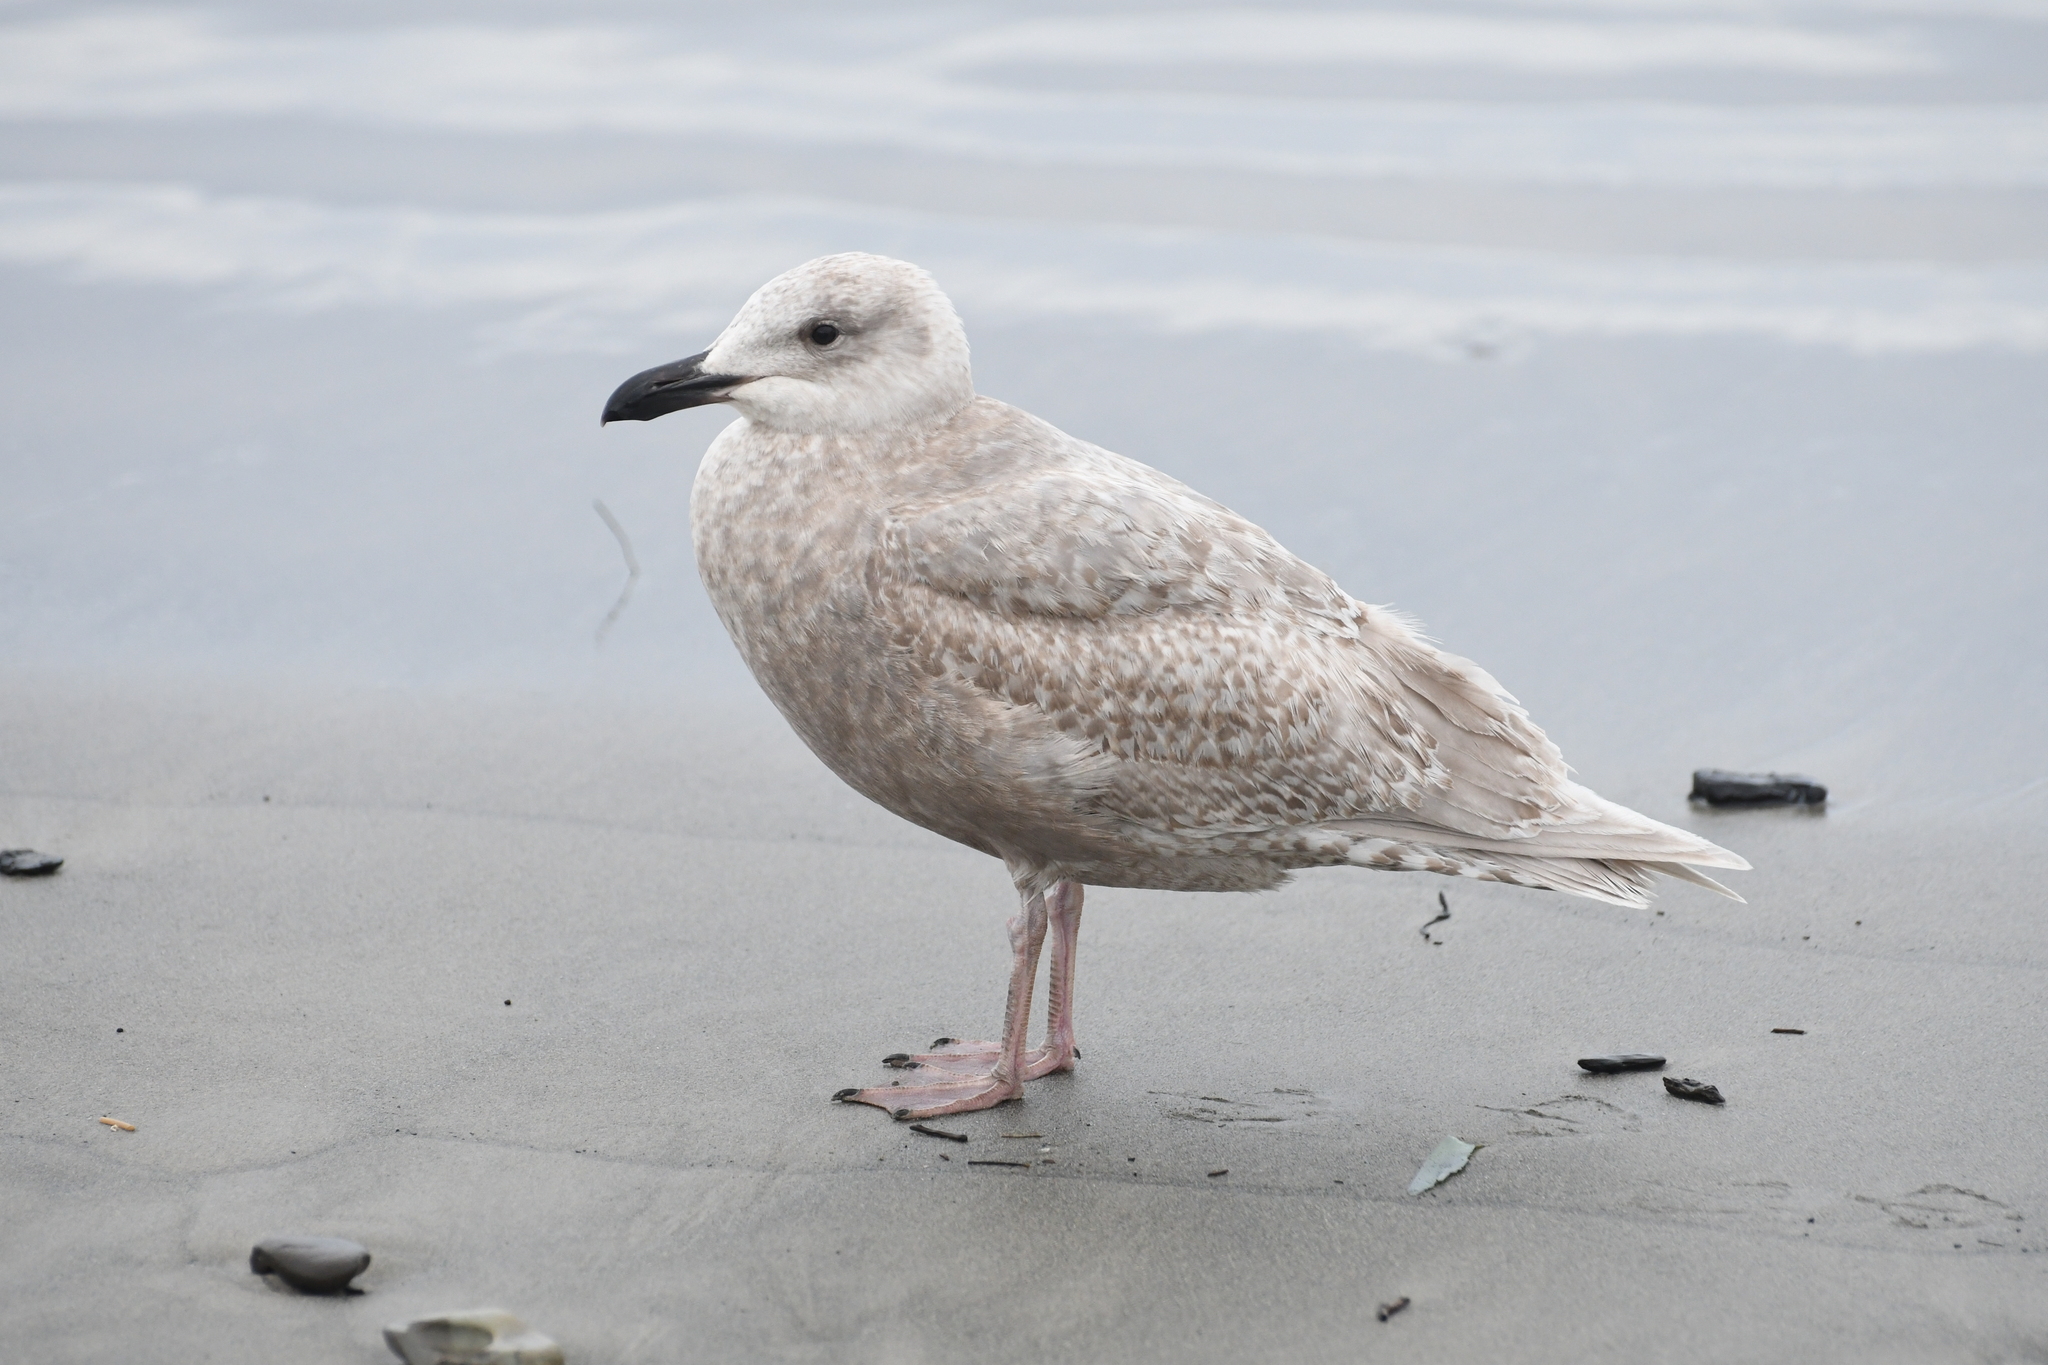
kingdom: Animalia
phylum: Chordata
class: Aves
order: Charadriiformes
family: Laridae
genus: Larus
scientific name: Larus glaucescens
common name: Glaucous-winged gull
